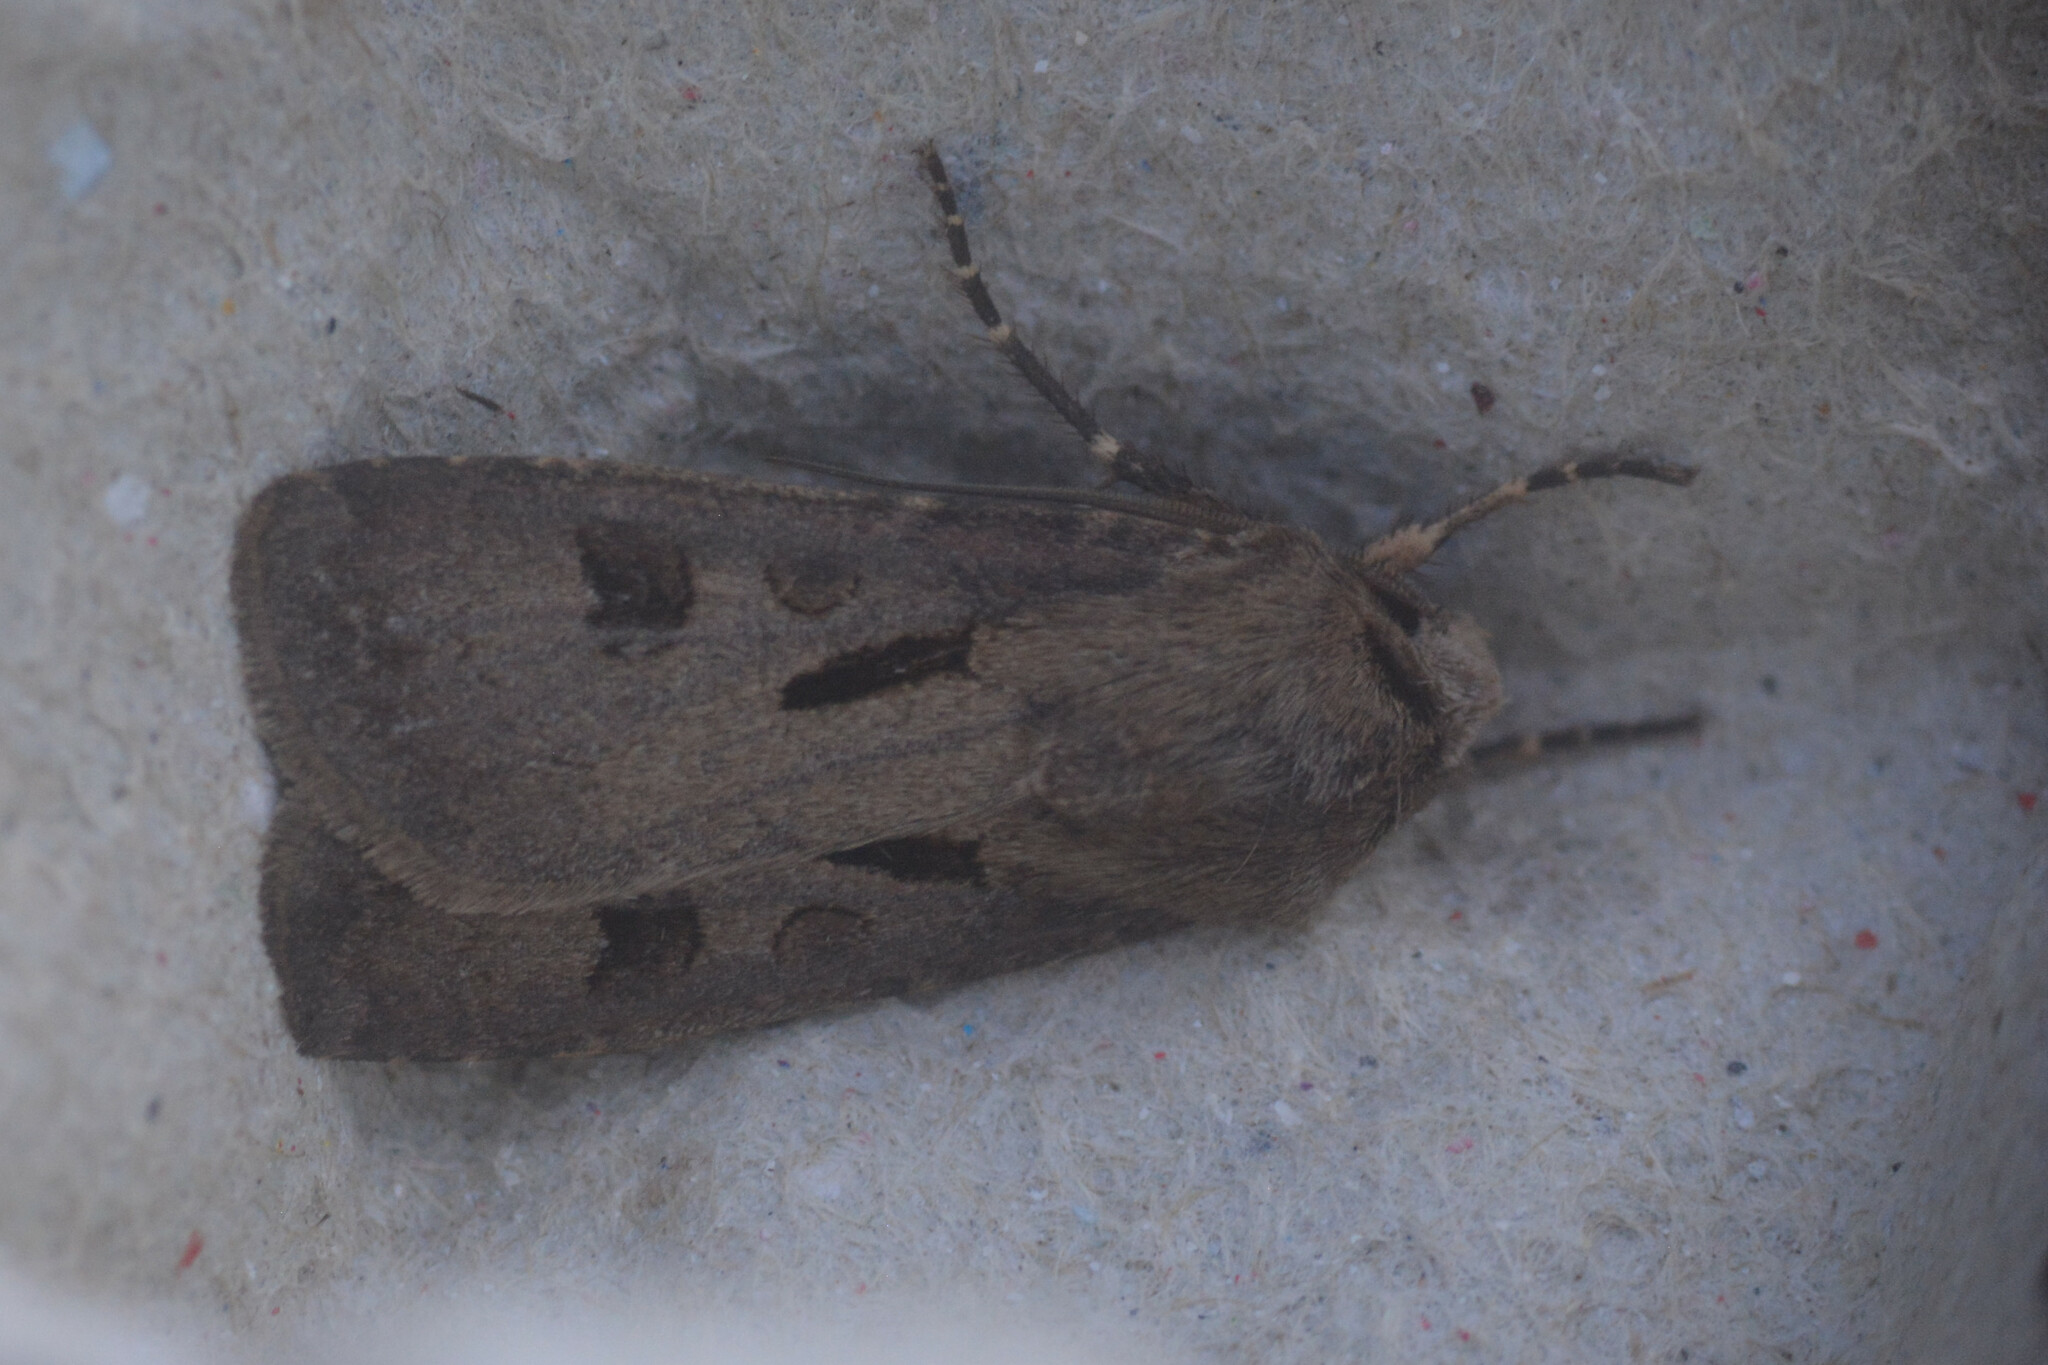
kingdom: Animalia
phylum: Arthropoda
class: Insecta
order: Lepidoptera
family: Noctuidae
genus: Agrotis
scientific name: Agrotis exclamationis
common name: Heart and dart
